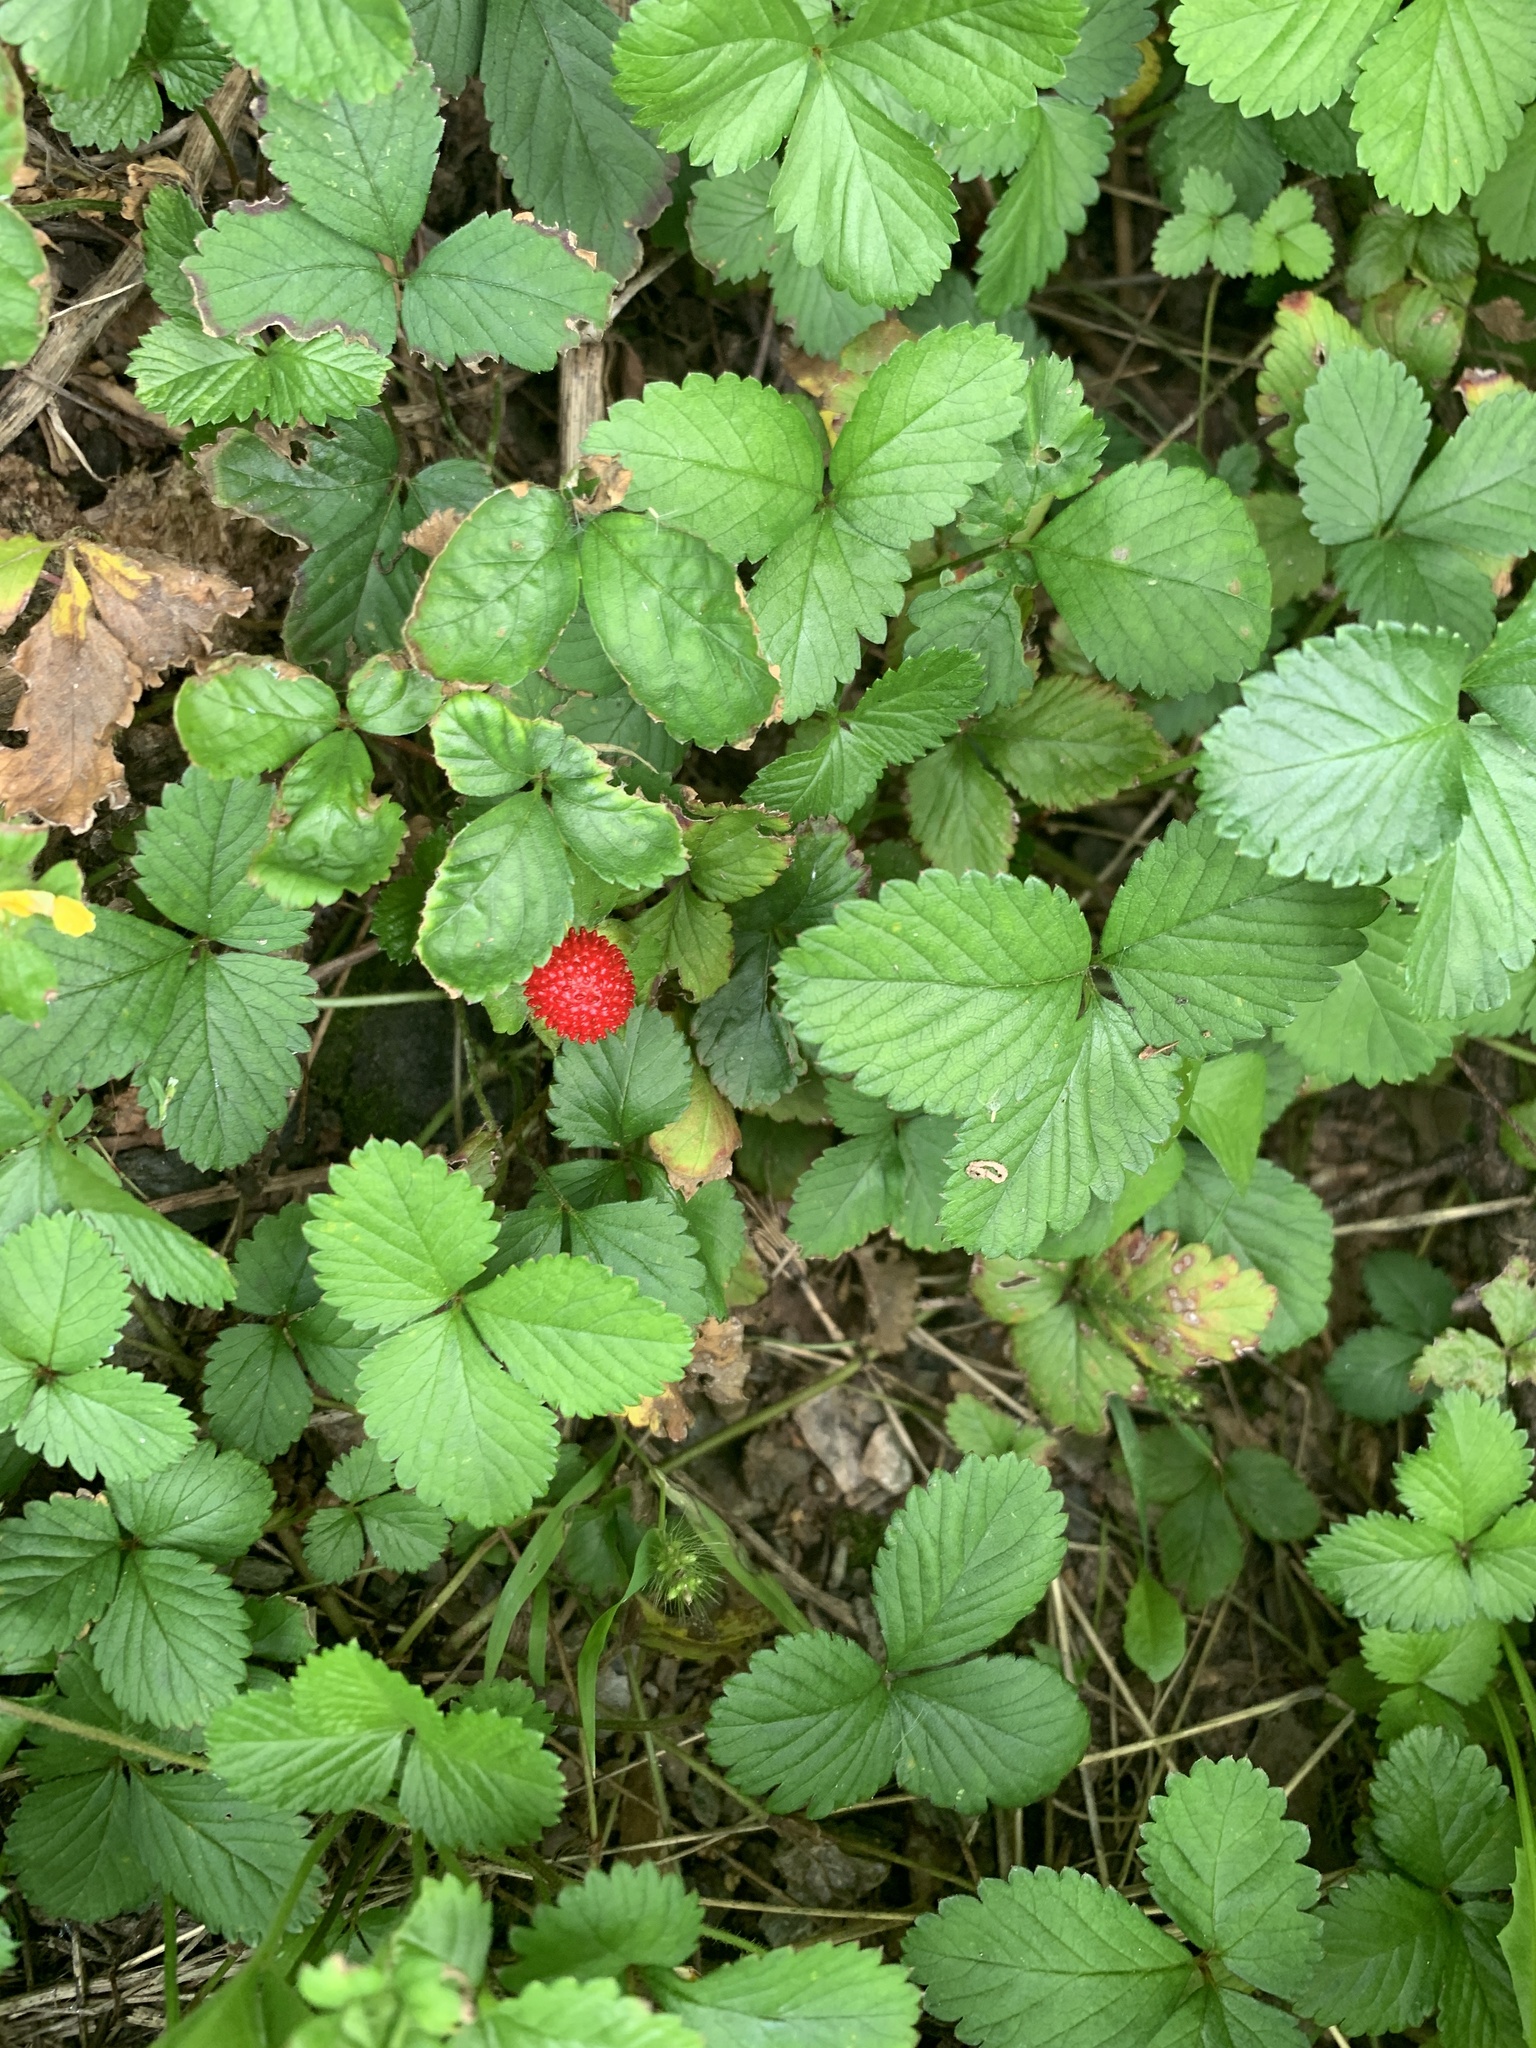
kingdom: Plantae
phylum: Tracheophyta
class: Magnoliopsida
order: Rosales
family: Rosaceae
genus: Potentilla
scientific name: Potentilla indica
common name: Yellow-flowered strawberry
